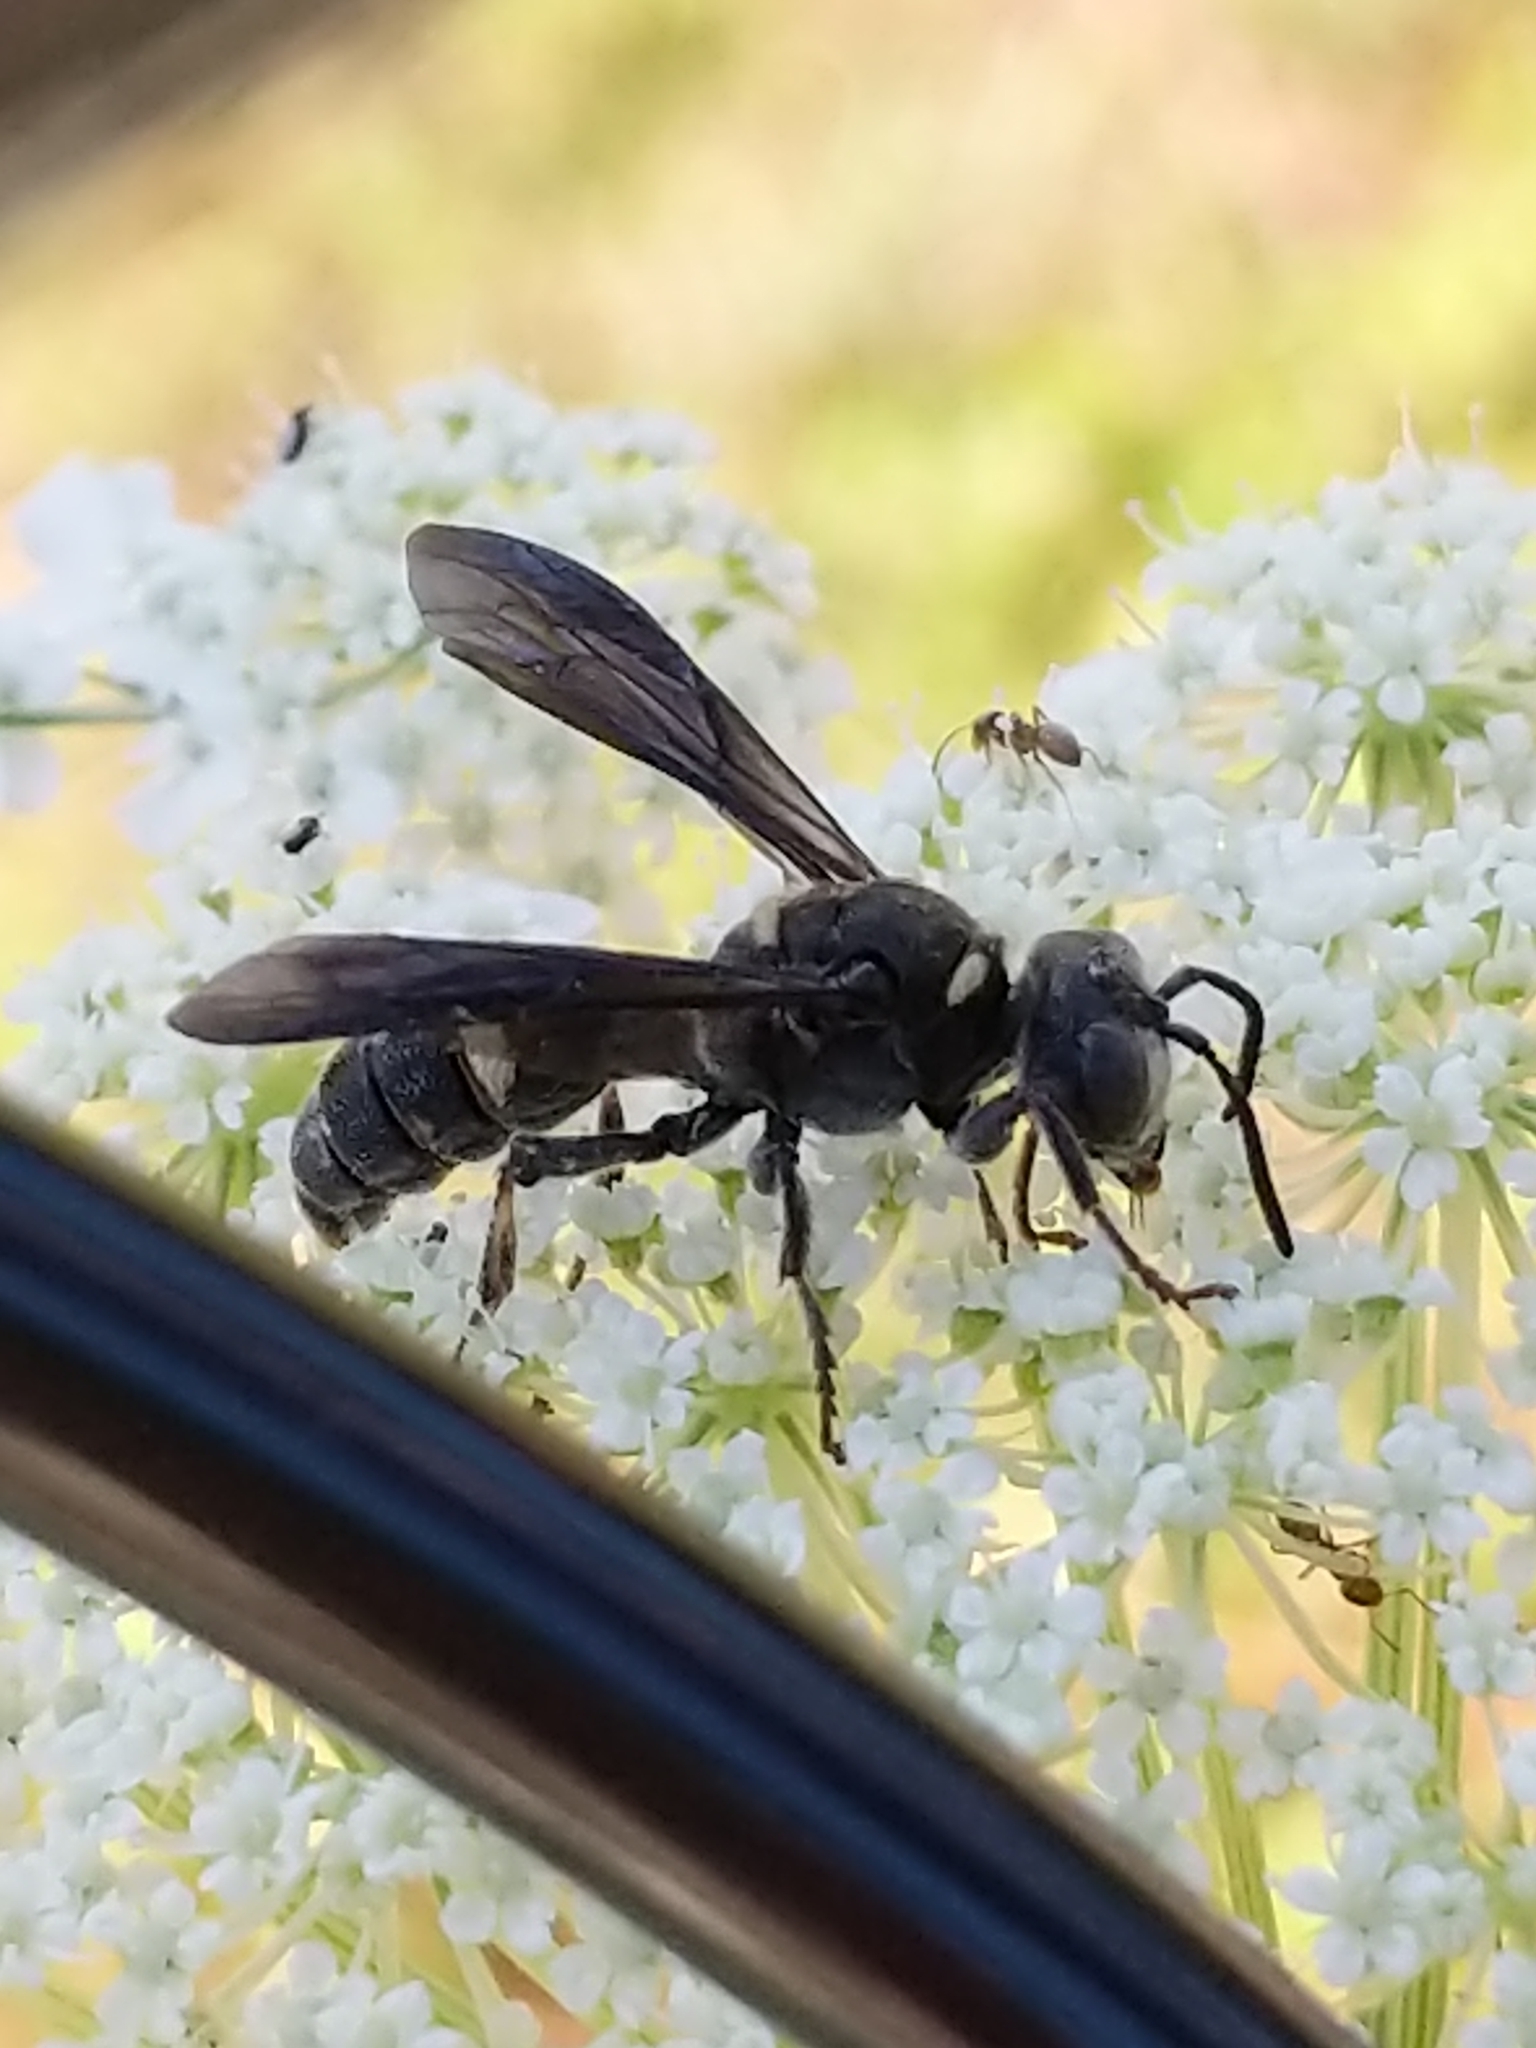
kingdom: Animalia
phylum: Arthropoda
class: Insecta
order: Hymenoptera
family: Crabronidae
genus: Cerceris
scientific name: Cerceris fumipennis
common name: Smokey-winged beetle bandit wasp
